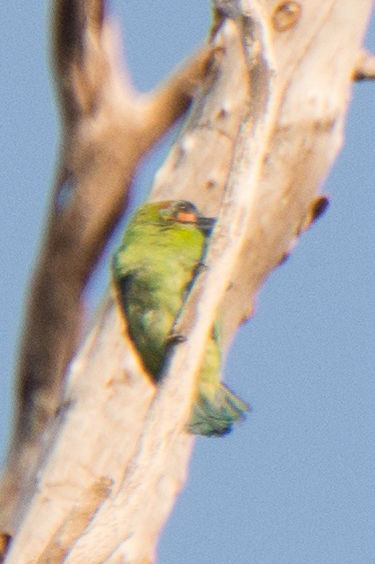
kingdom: Animalia
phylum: Chordata
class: Aves
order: Piciformes
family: Megalaimidae
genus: Psilopogon
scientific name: Psilopogon duvaucelii
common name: Blue-eared barbet
